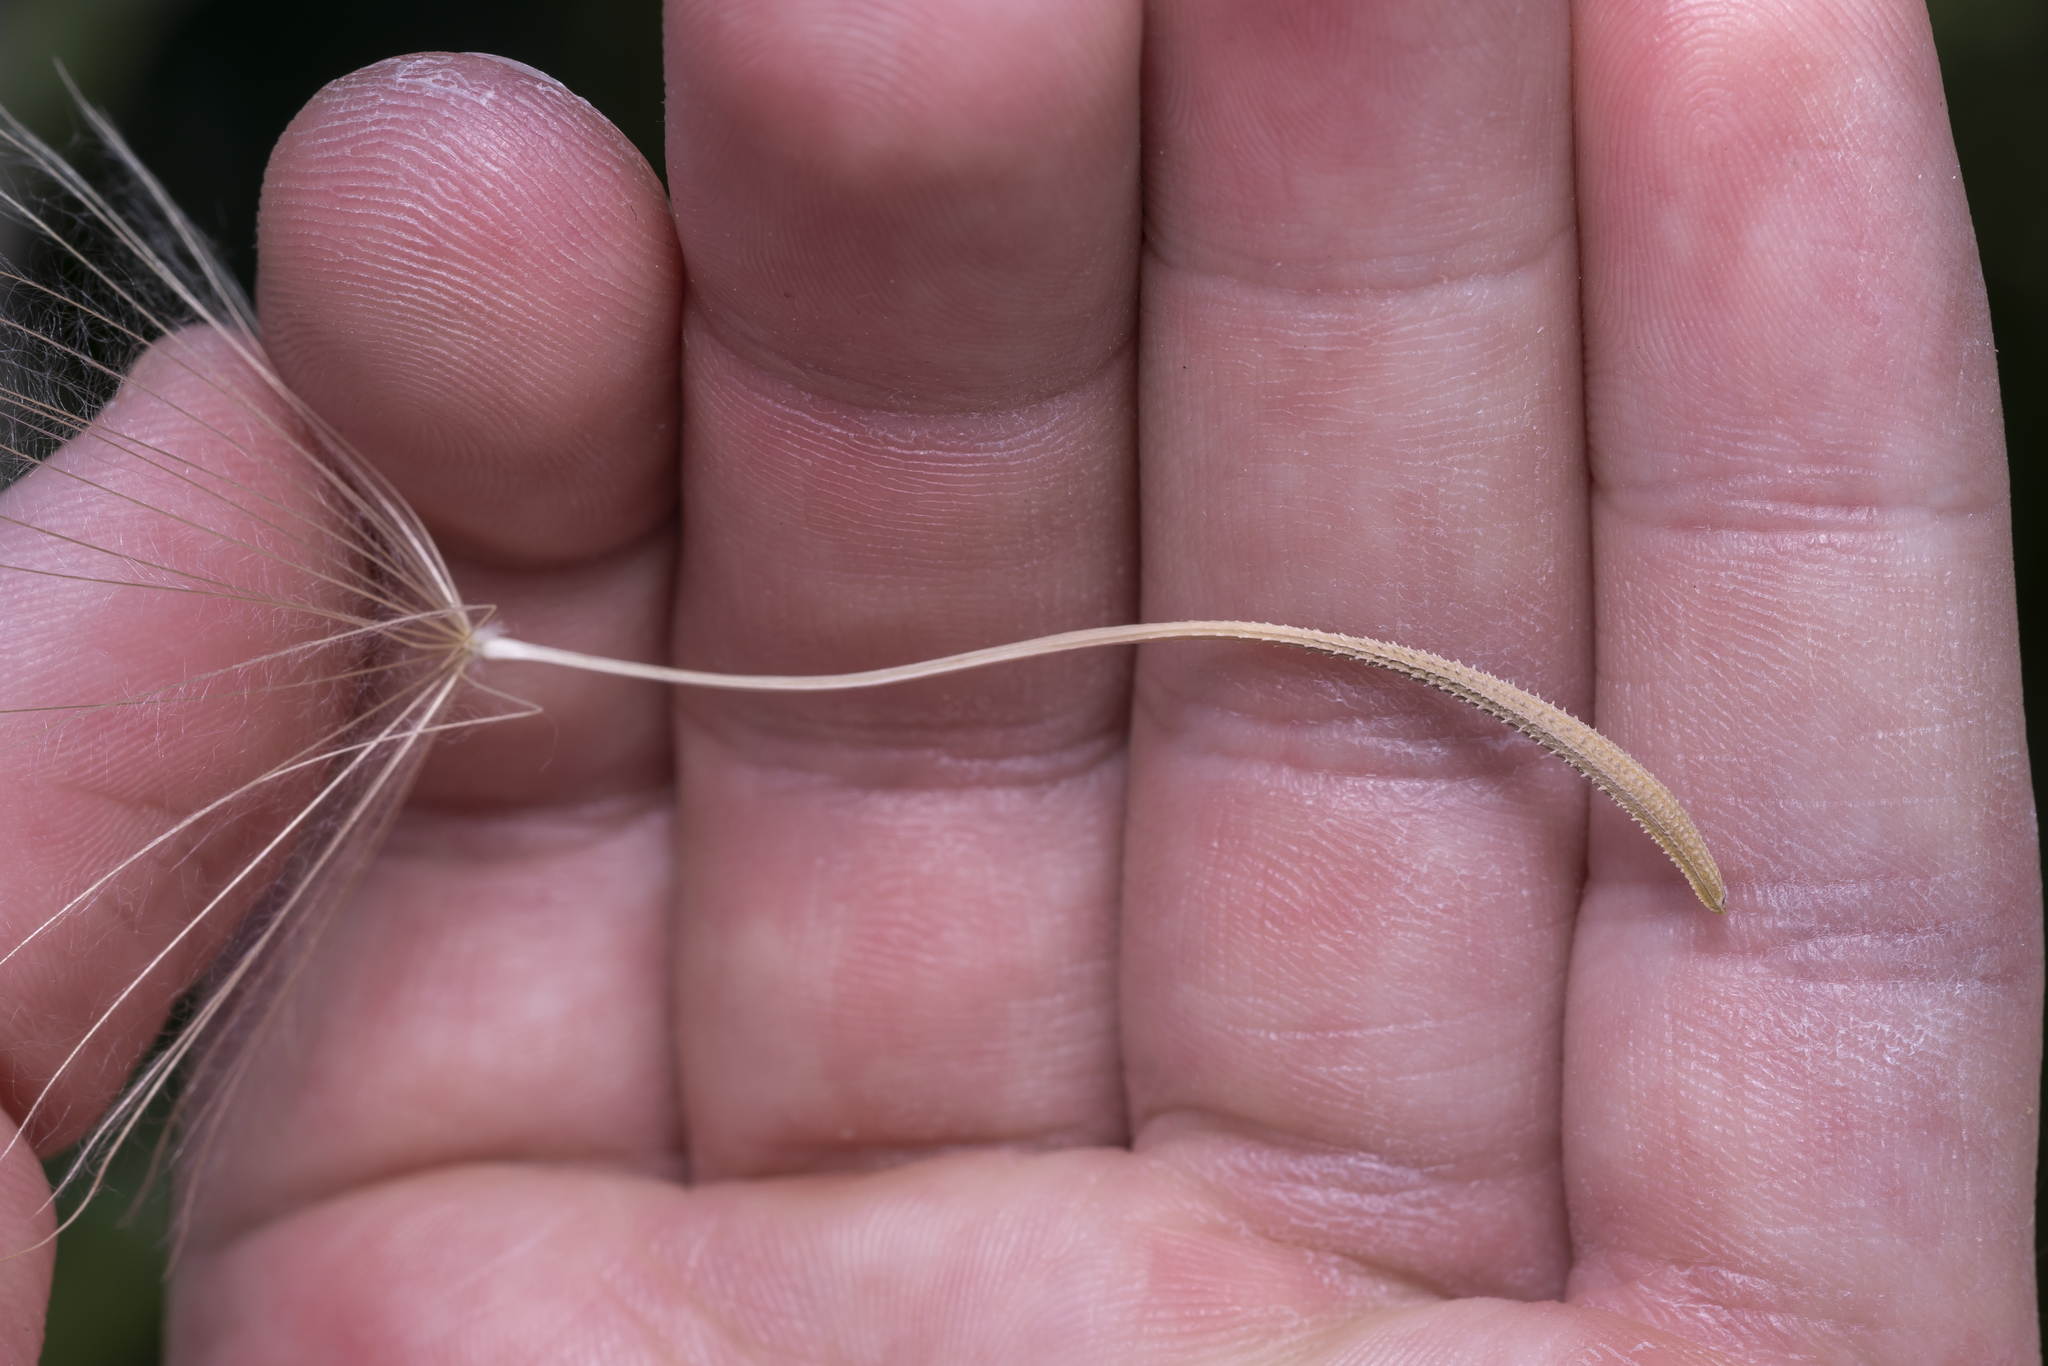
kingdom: Plantae
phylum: Tracheophyta
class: Magnoliopsida
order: Asterales
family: Asteraceae
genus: Tragopogon
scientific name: Tragopogon coelesyriacus
